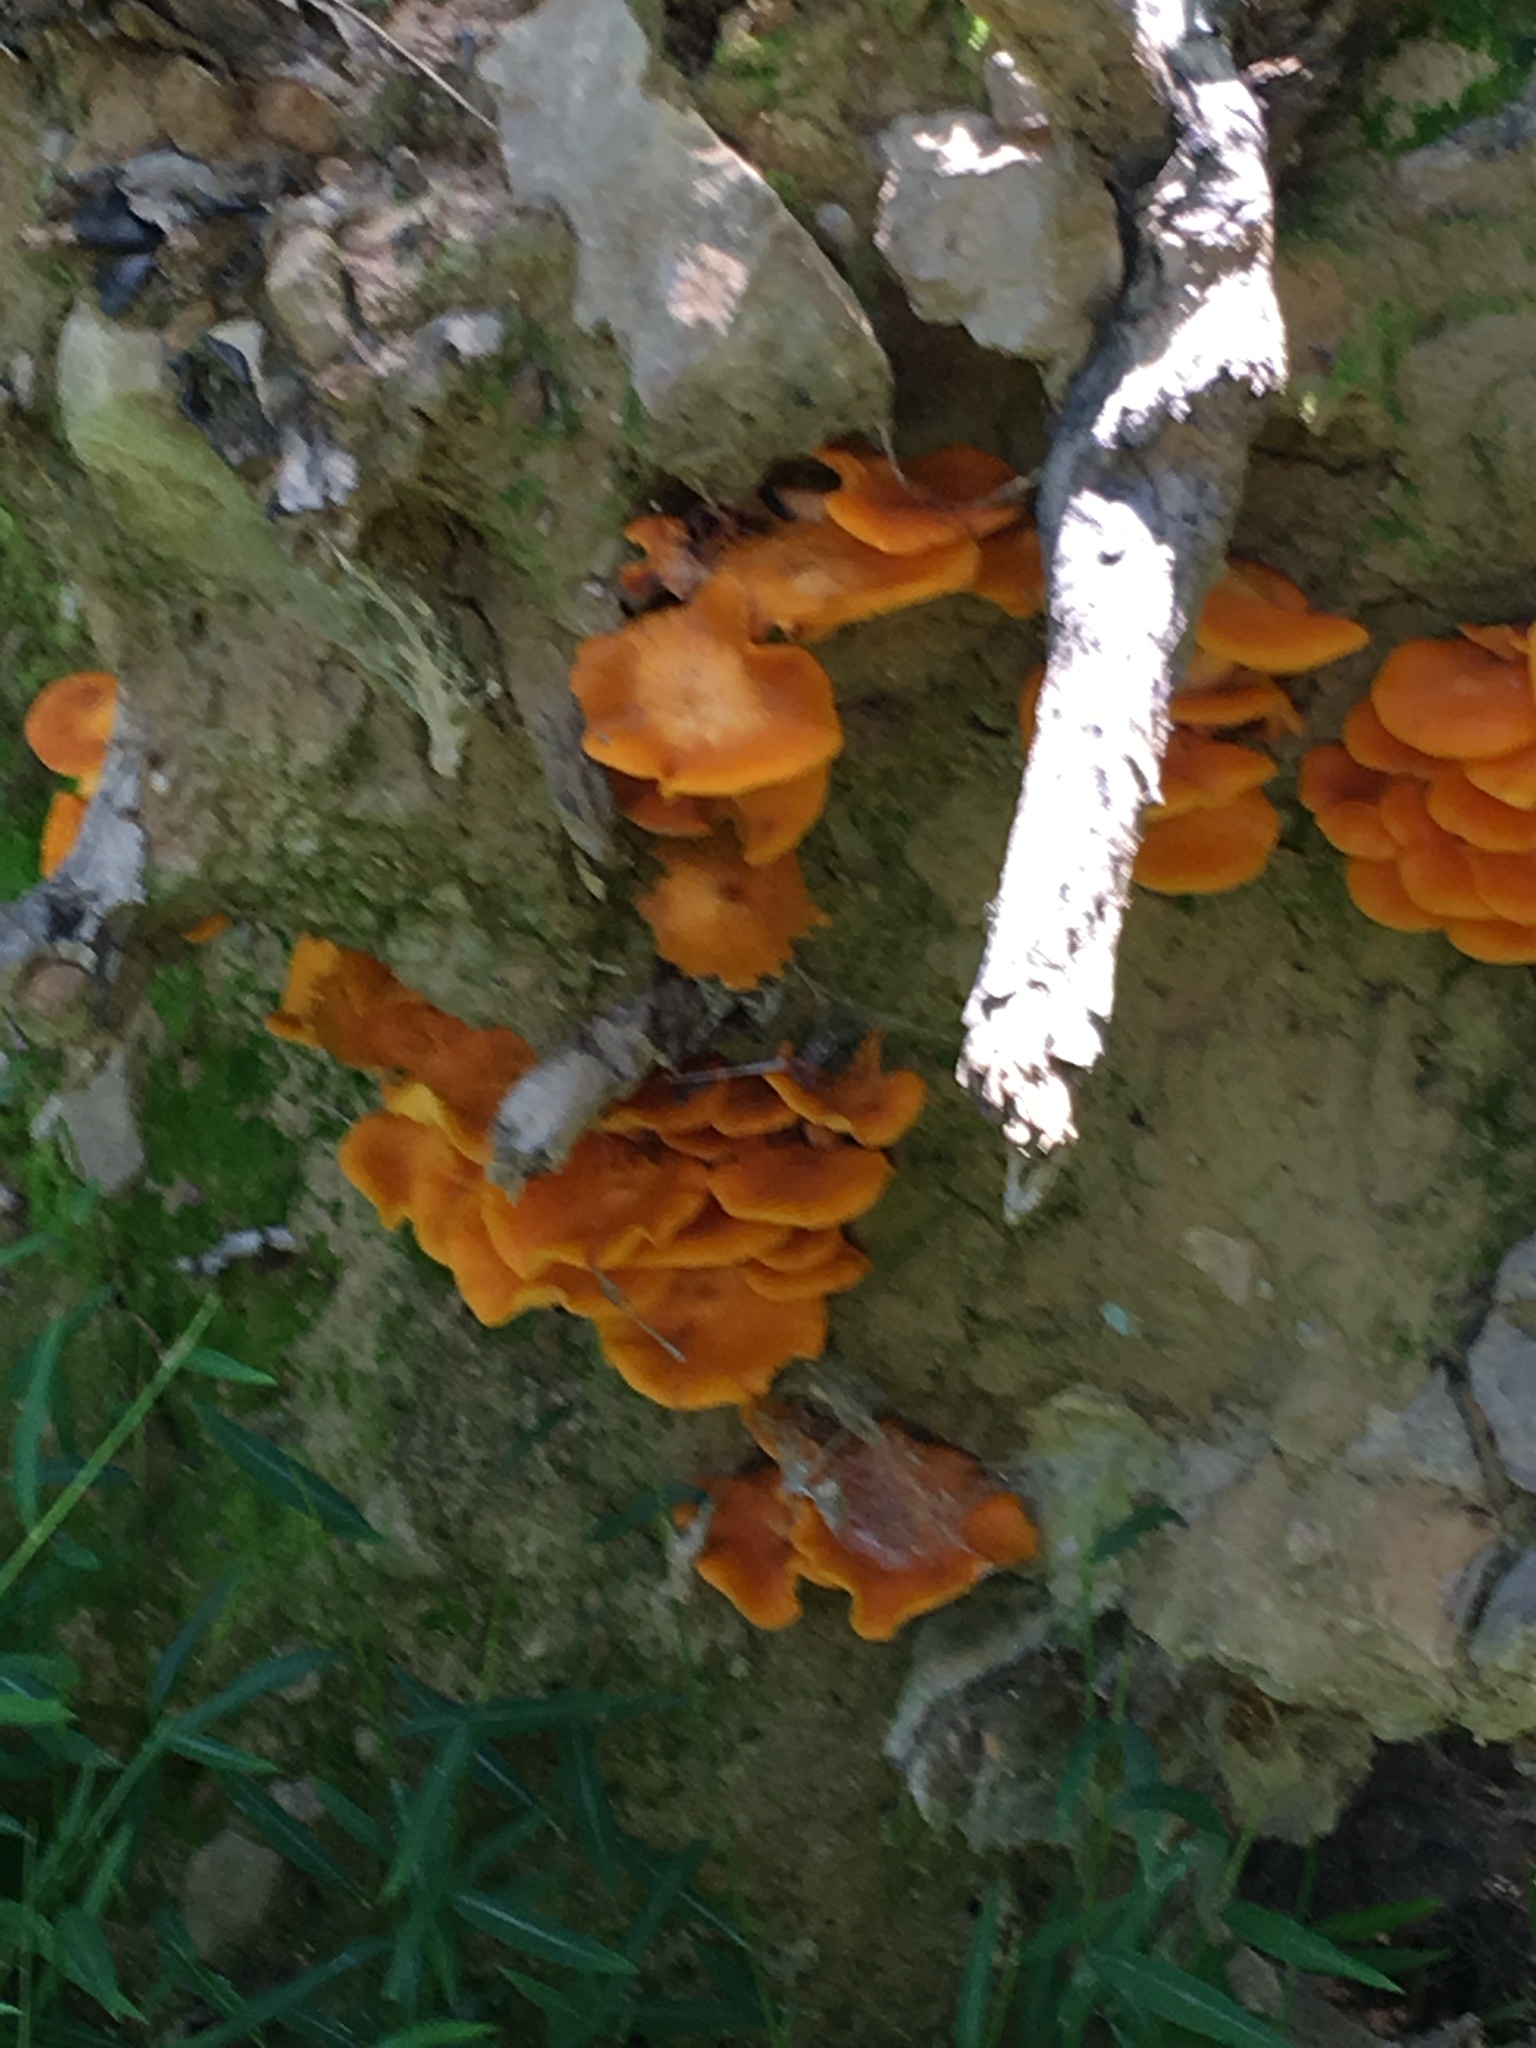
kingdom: Fungi
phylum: Basidiomycota
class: Agaricomycetes
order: Agaricales
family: Omphalotaceae
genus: Omphalotus
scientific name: Omphalotus illudens
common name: Jack o lantern
